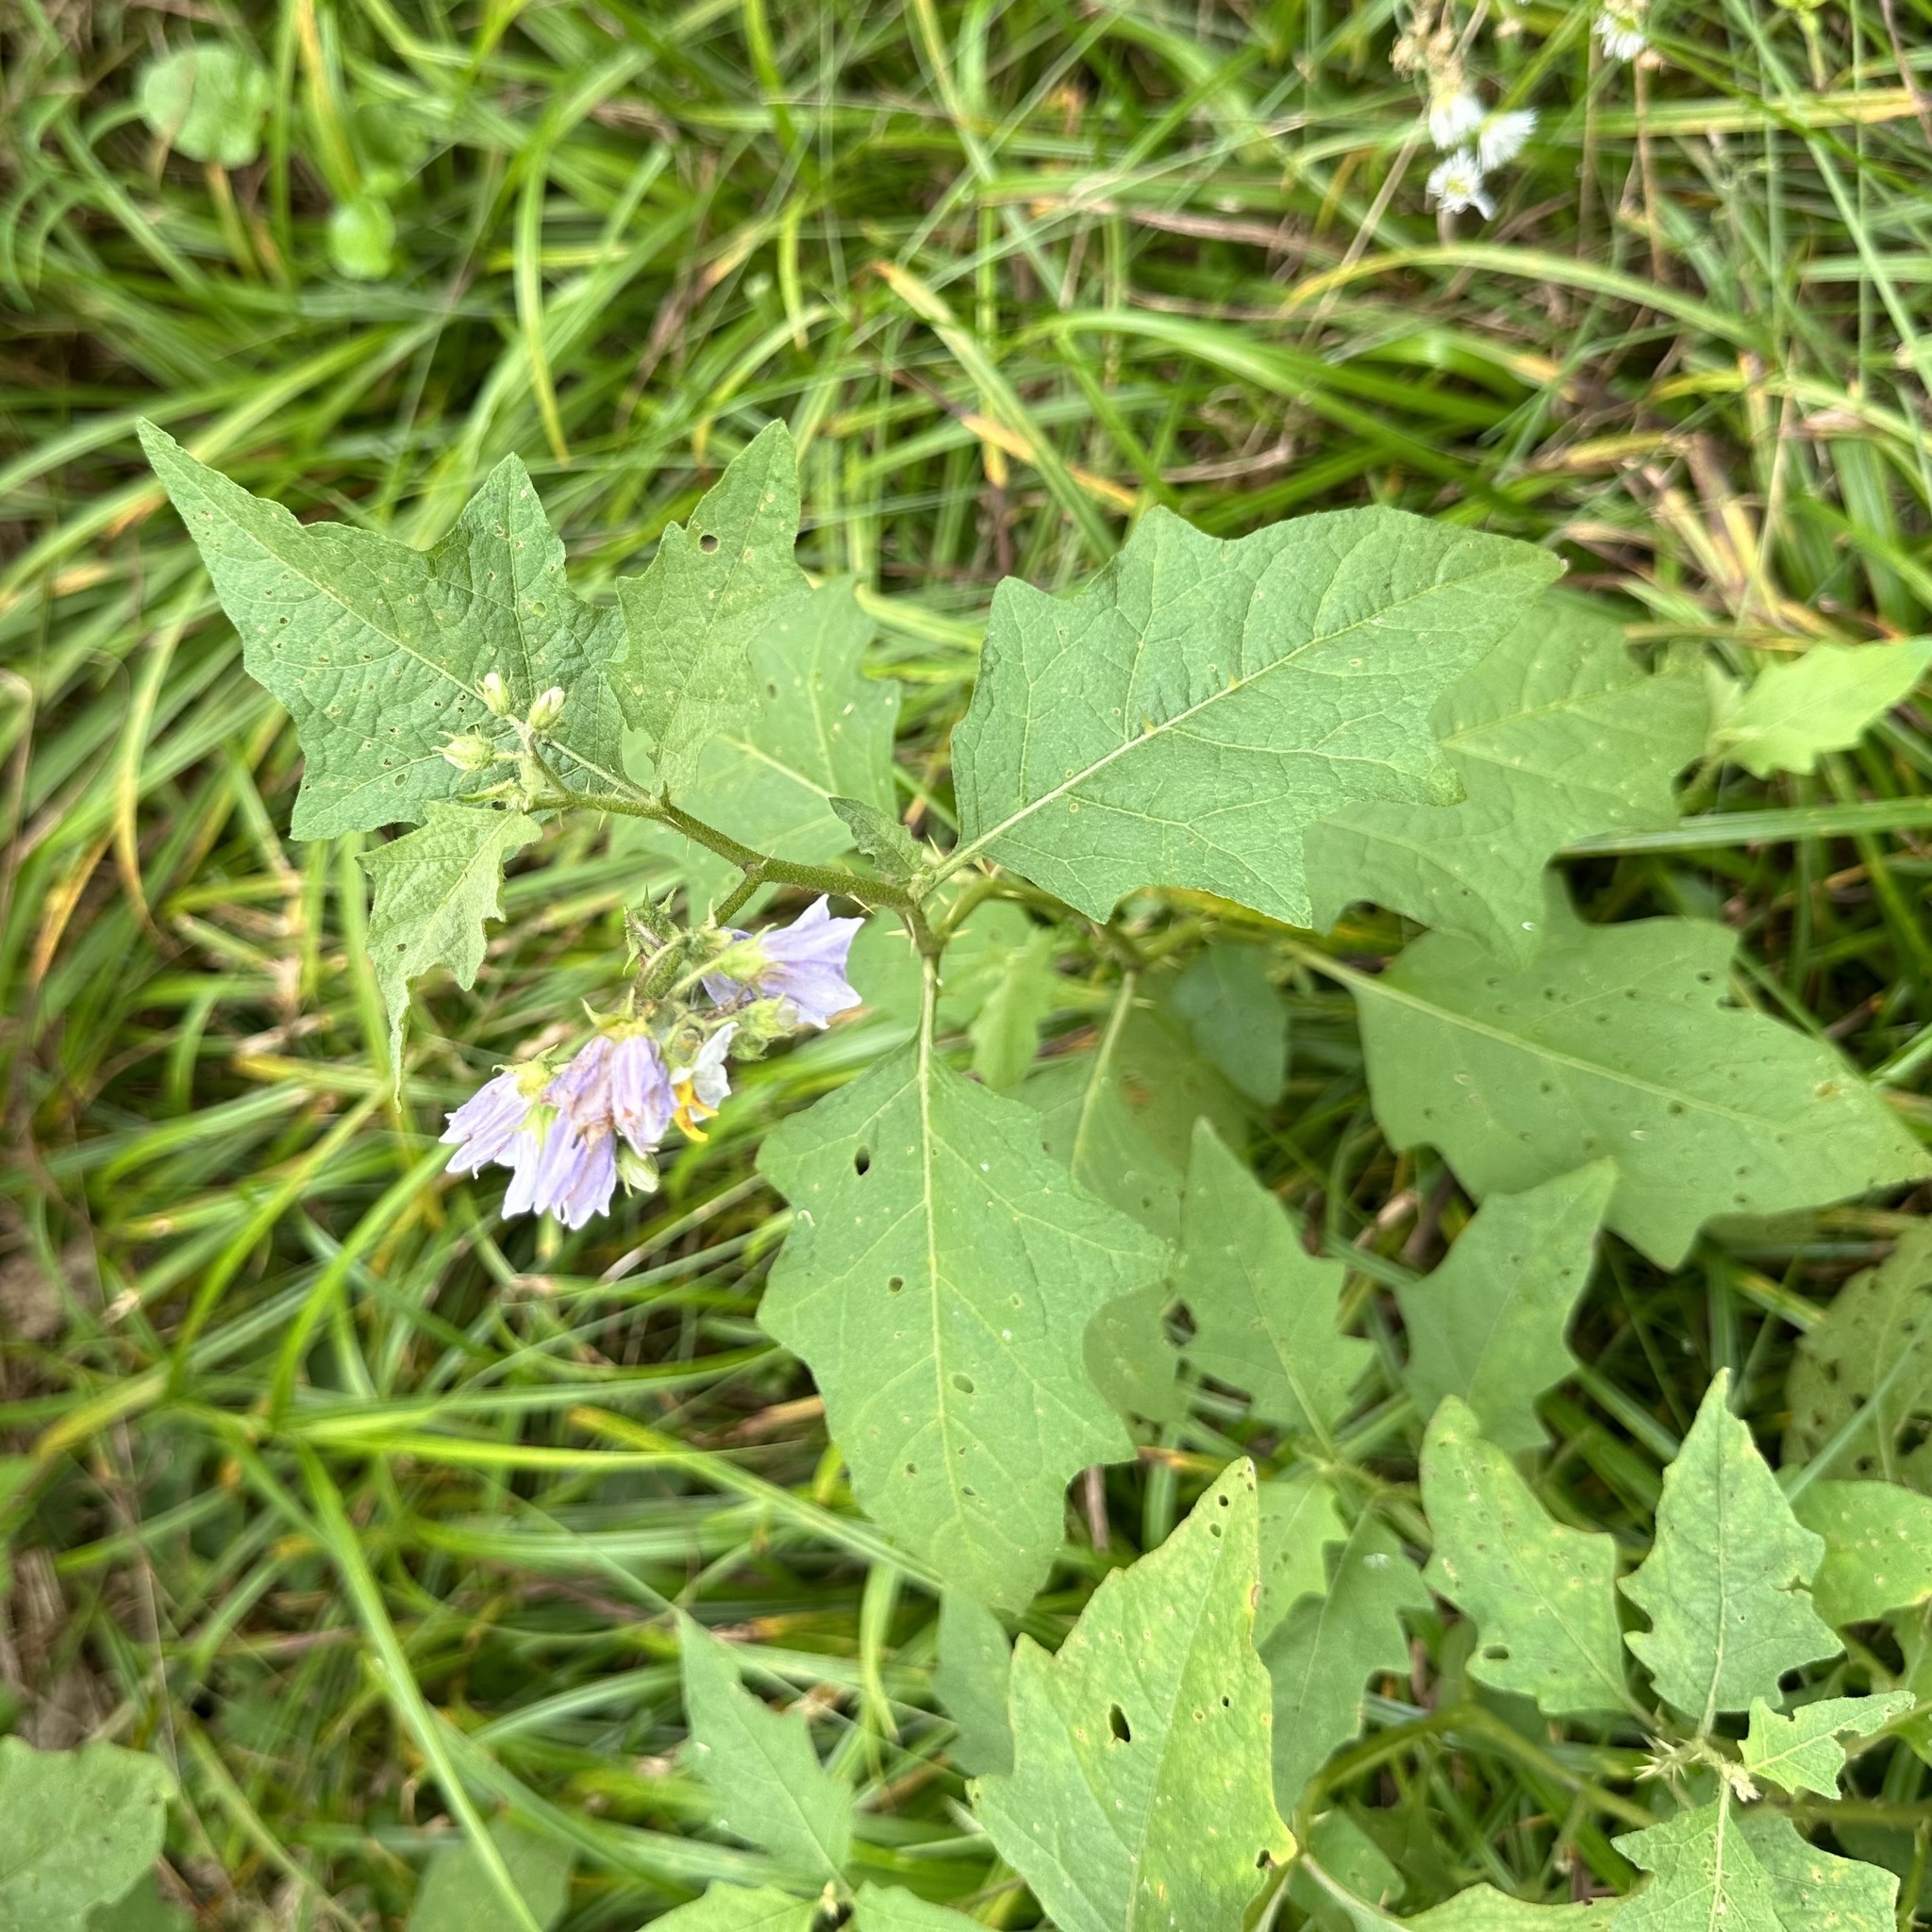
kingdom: Plantae
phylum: Tracheophyta
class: Magnoliopsida
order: Solanales
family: Solanaceae
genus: Solanum
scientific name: Solanum carolinense
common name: Horse-nettle
